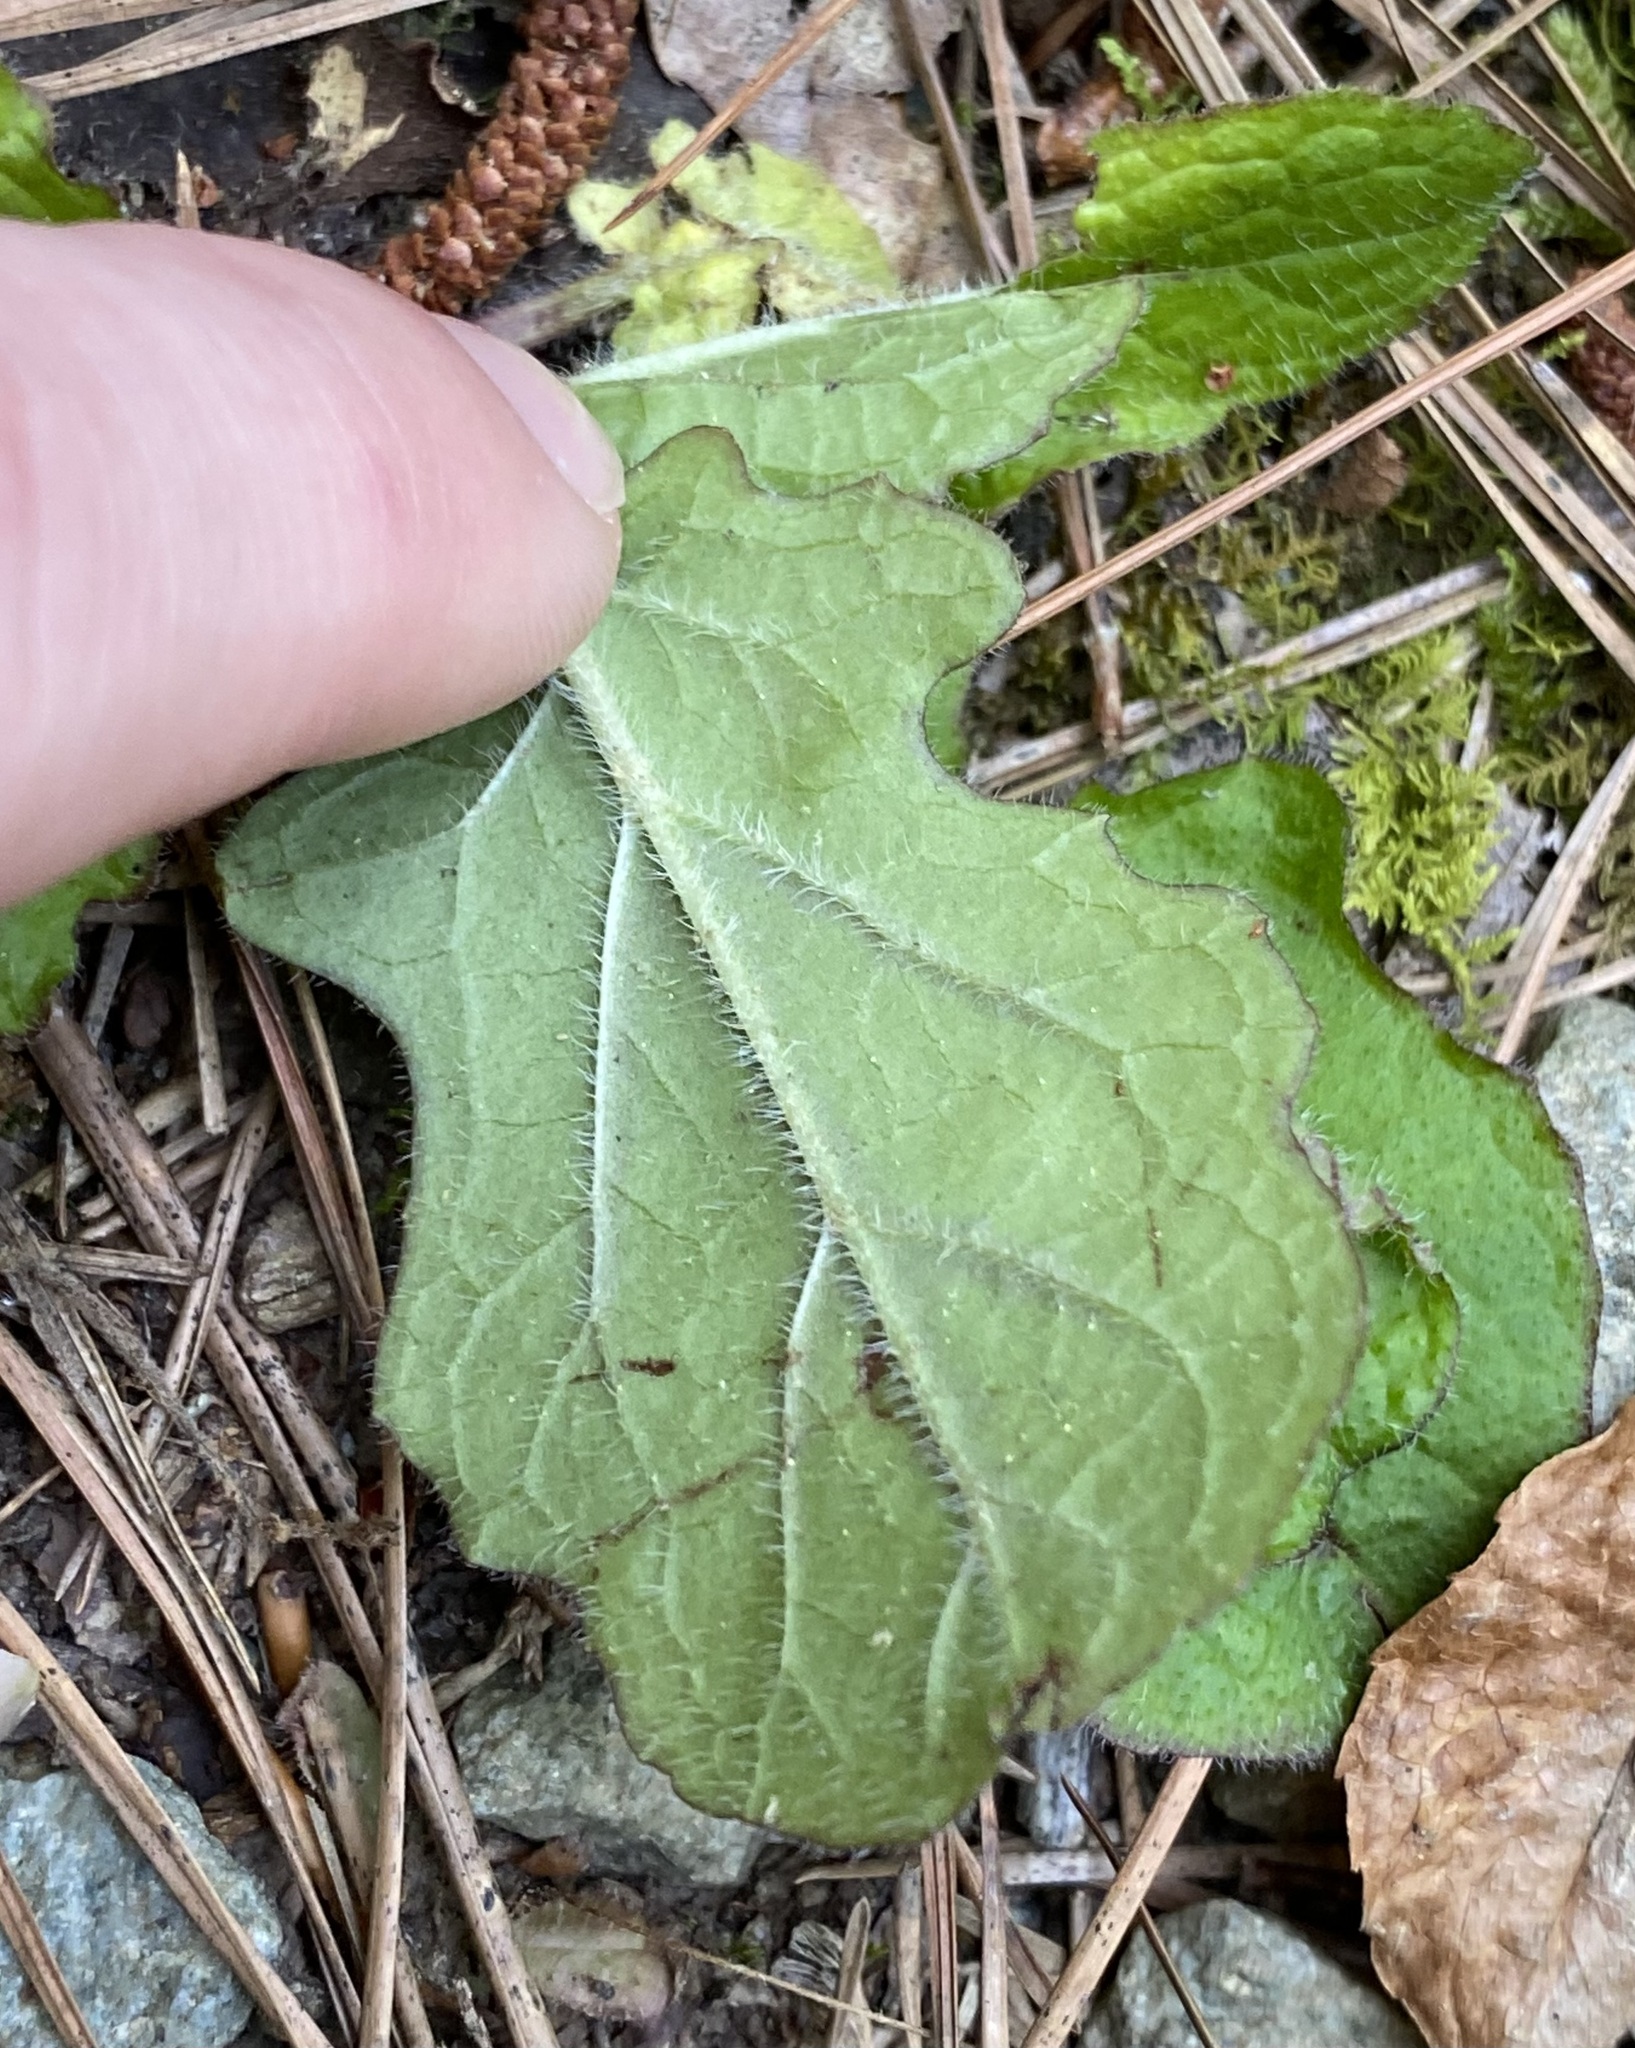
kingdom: Plantae
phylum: Tracheophyta
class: Magnoliopsida
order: Lamiales
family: Lamiaceae
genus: Salvia
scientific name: Salvia lyrata
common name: Cancerweed
